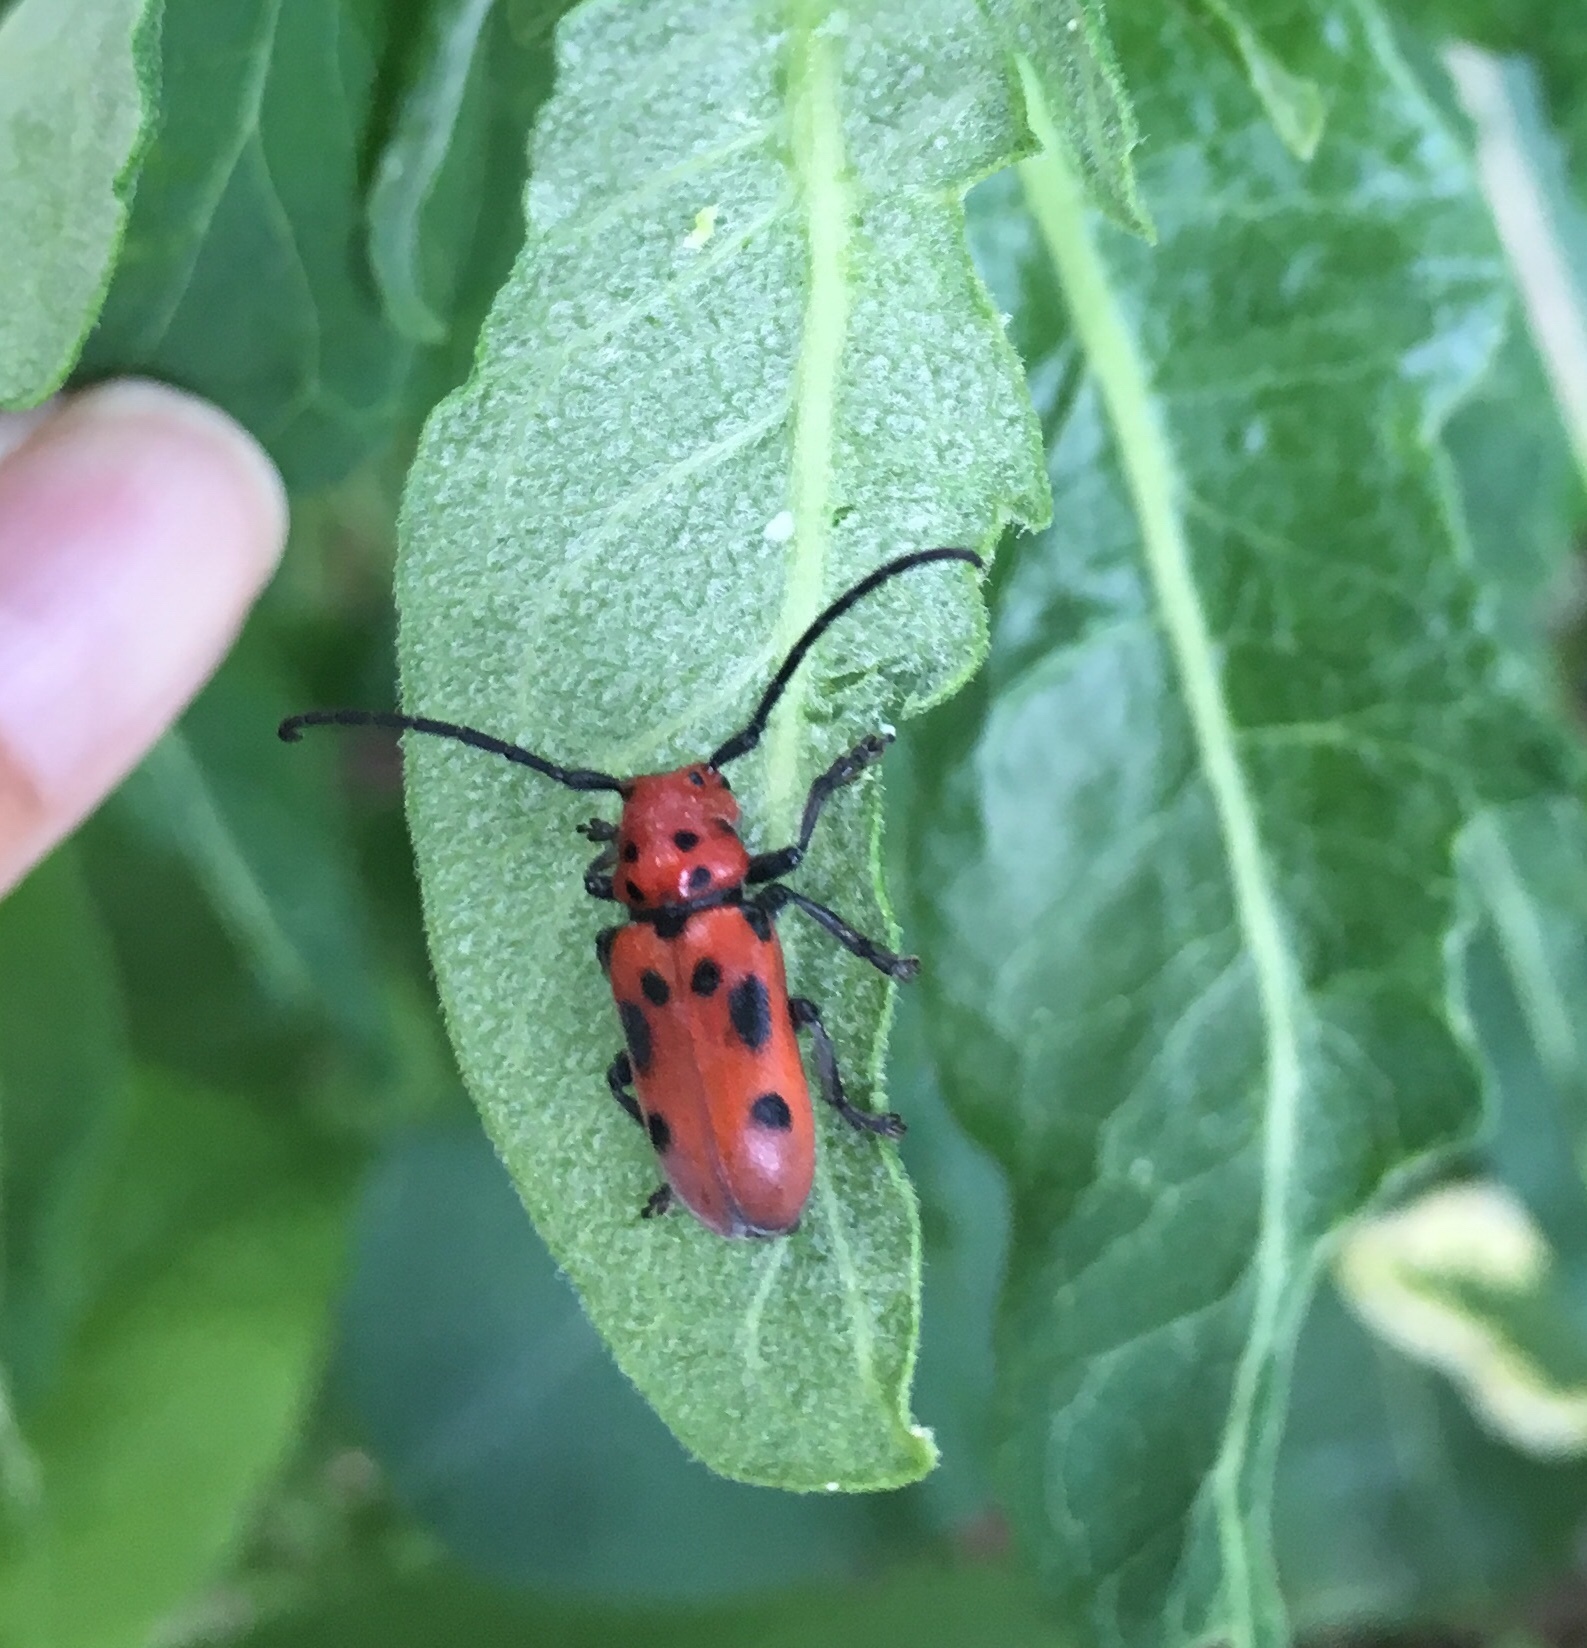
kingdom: Animalia
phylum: Arthropoda
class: Insecta
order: Coleoptera
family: Cerambycidae
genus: Tetraopes
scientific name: Tetraopes tetrophthalmus
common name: Red milkweed beetle
